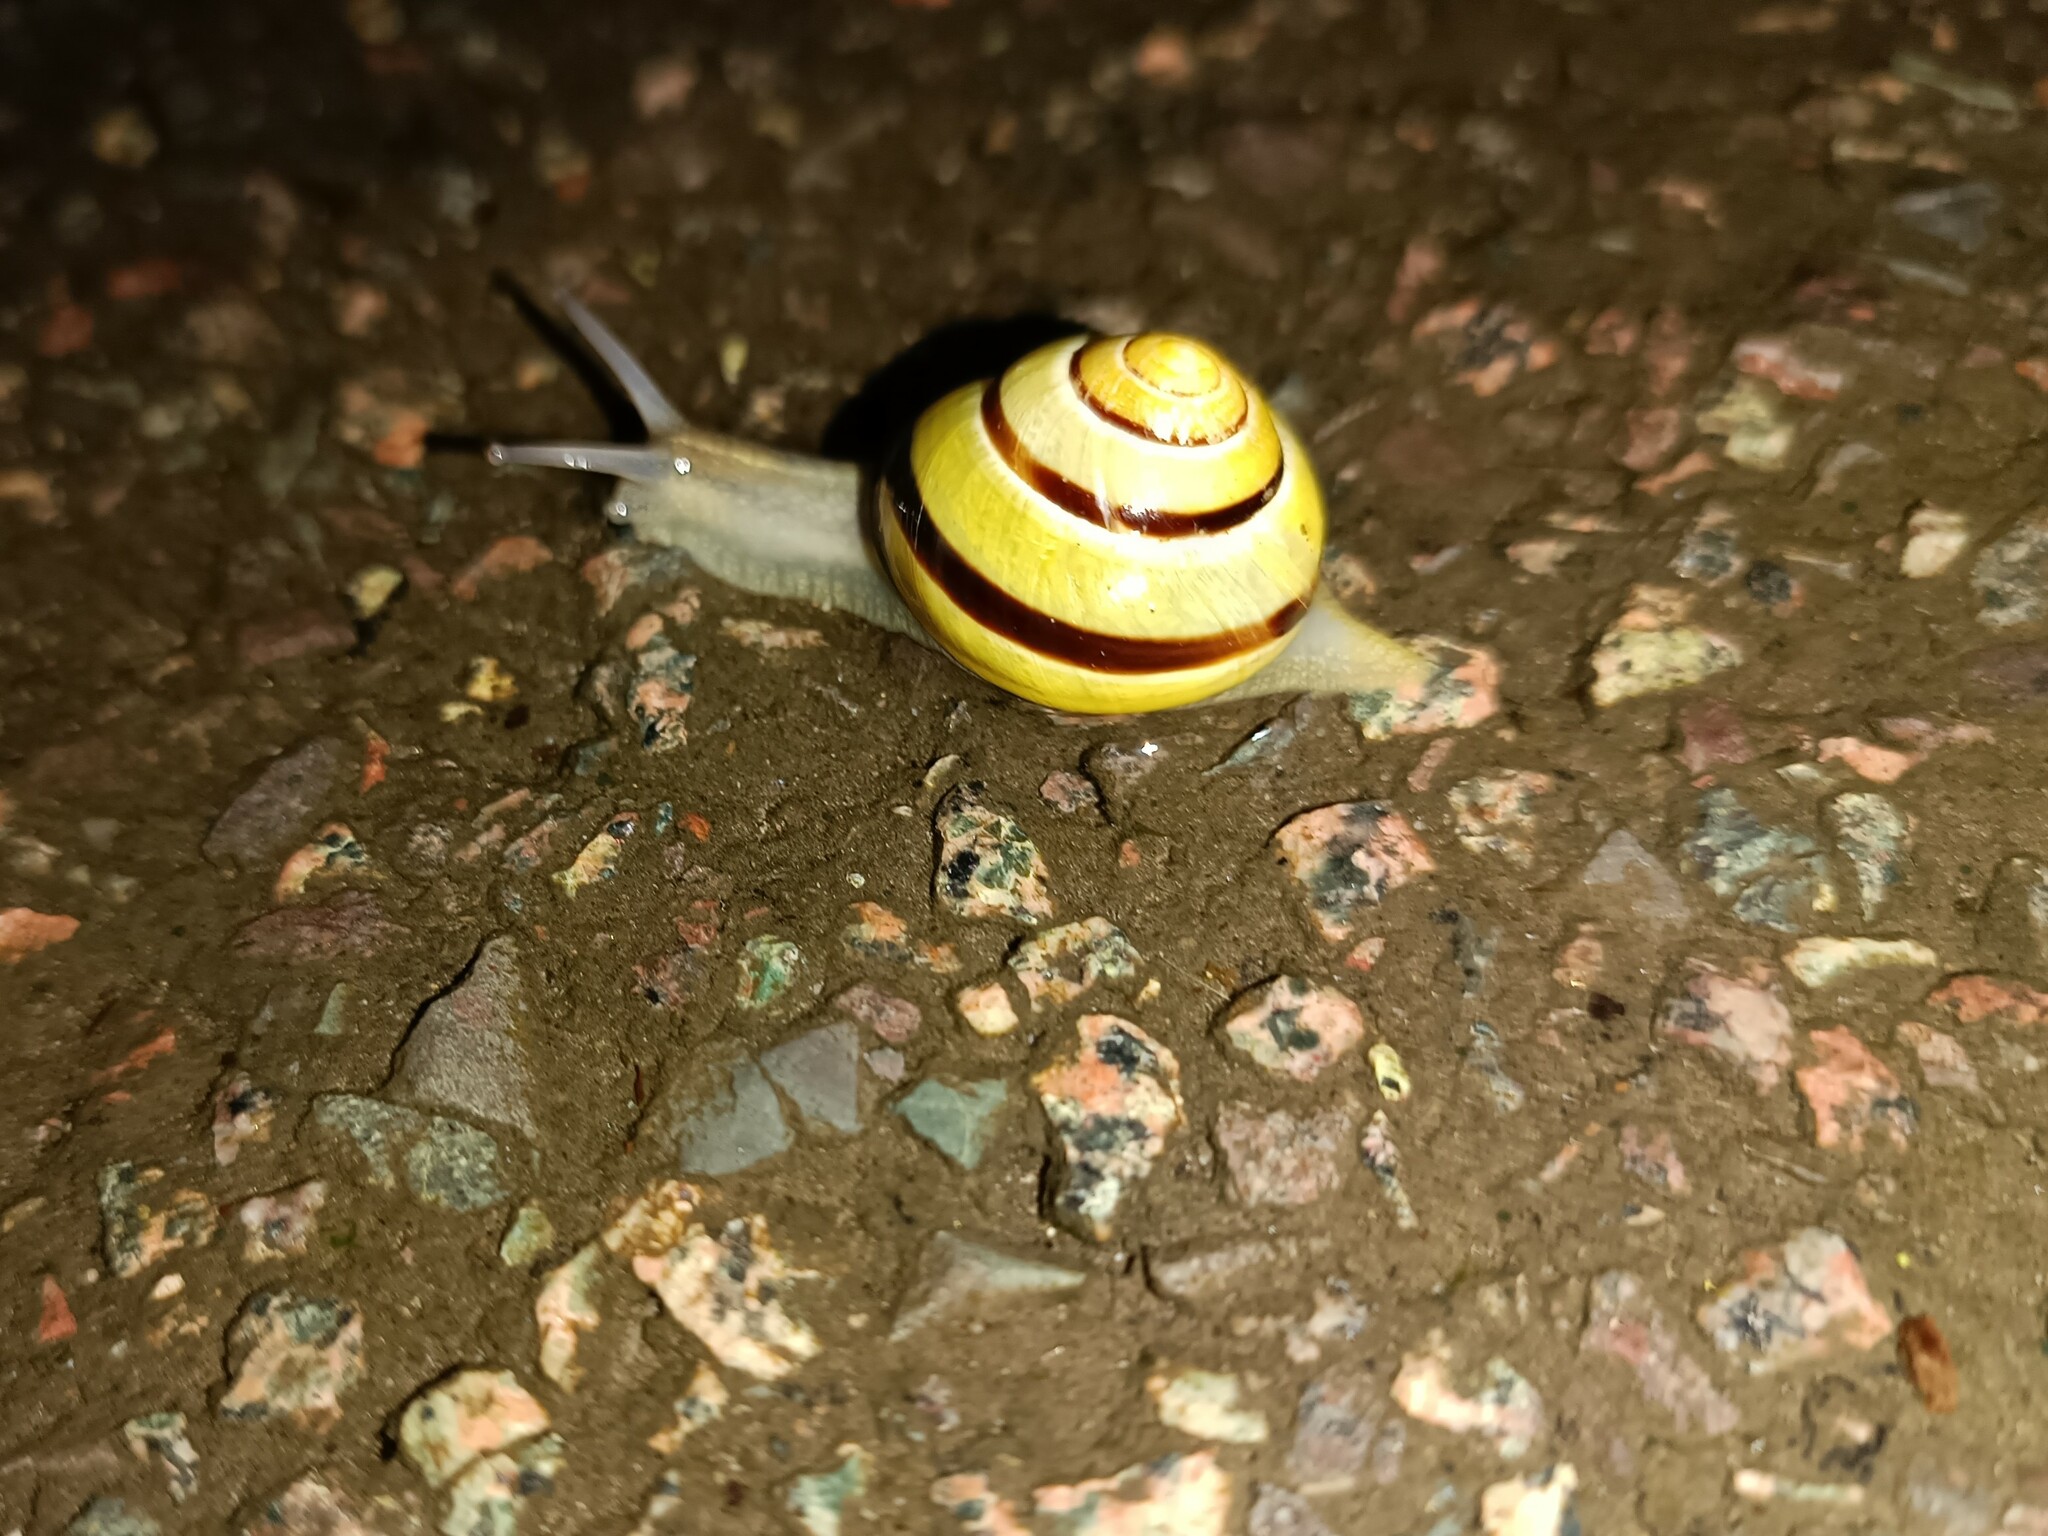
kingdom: Animalia
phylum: Mollusca
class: Gastropoda
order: Stylommatophora
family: Helicidae
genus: Cepaea
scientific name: Cepaea nemoralis
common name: Grovesnail
